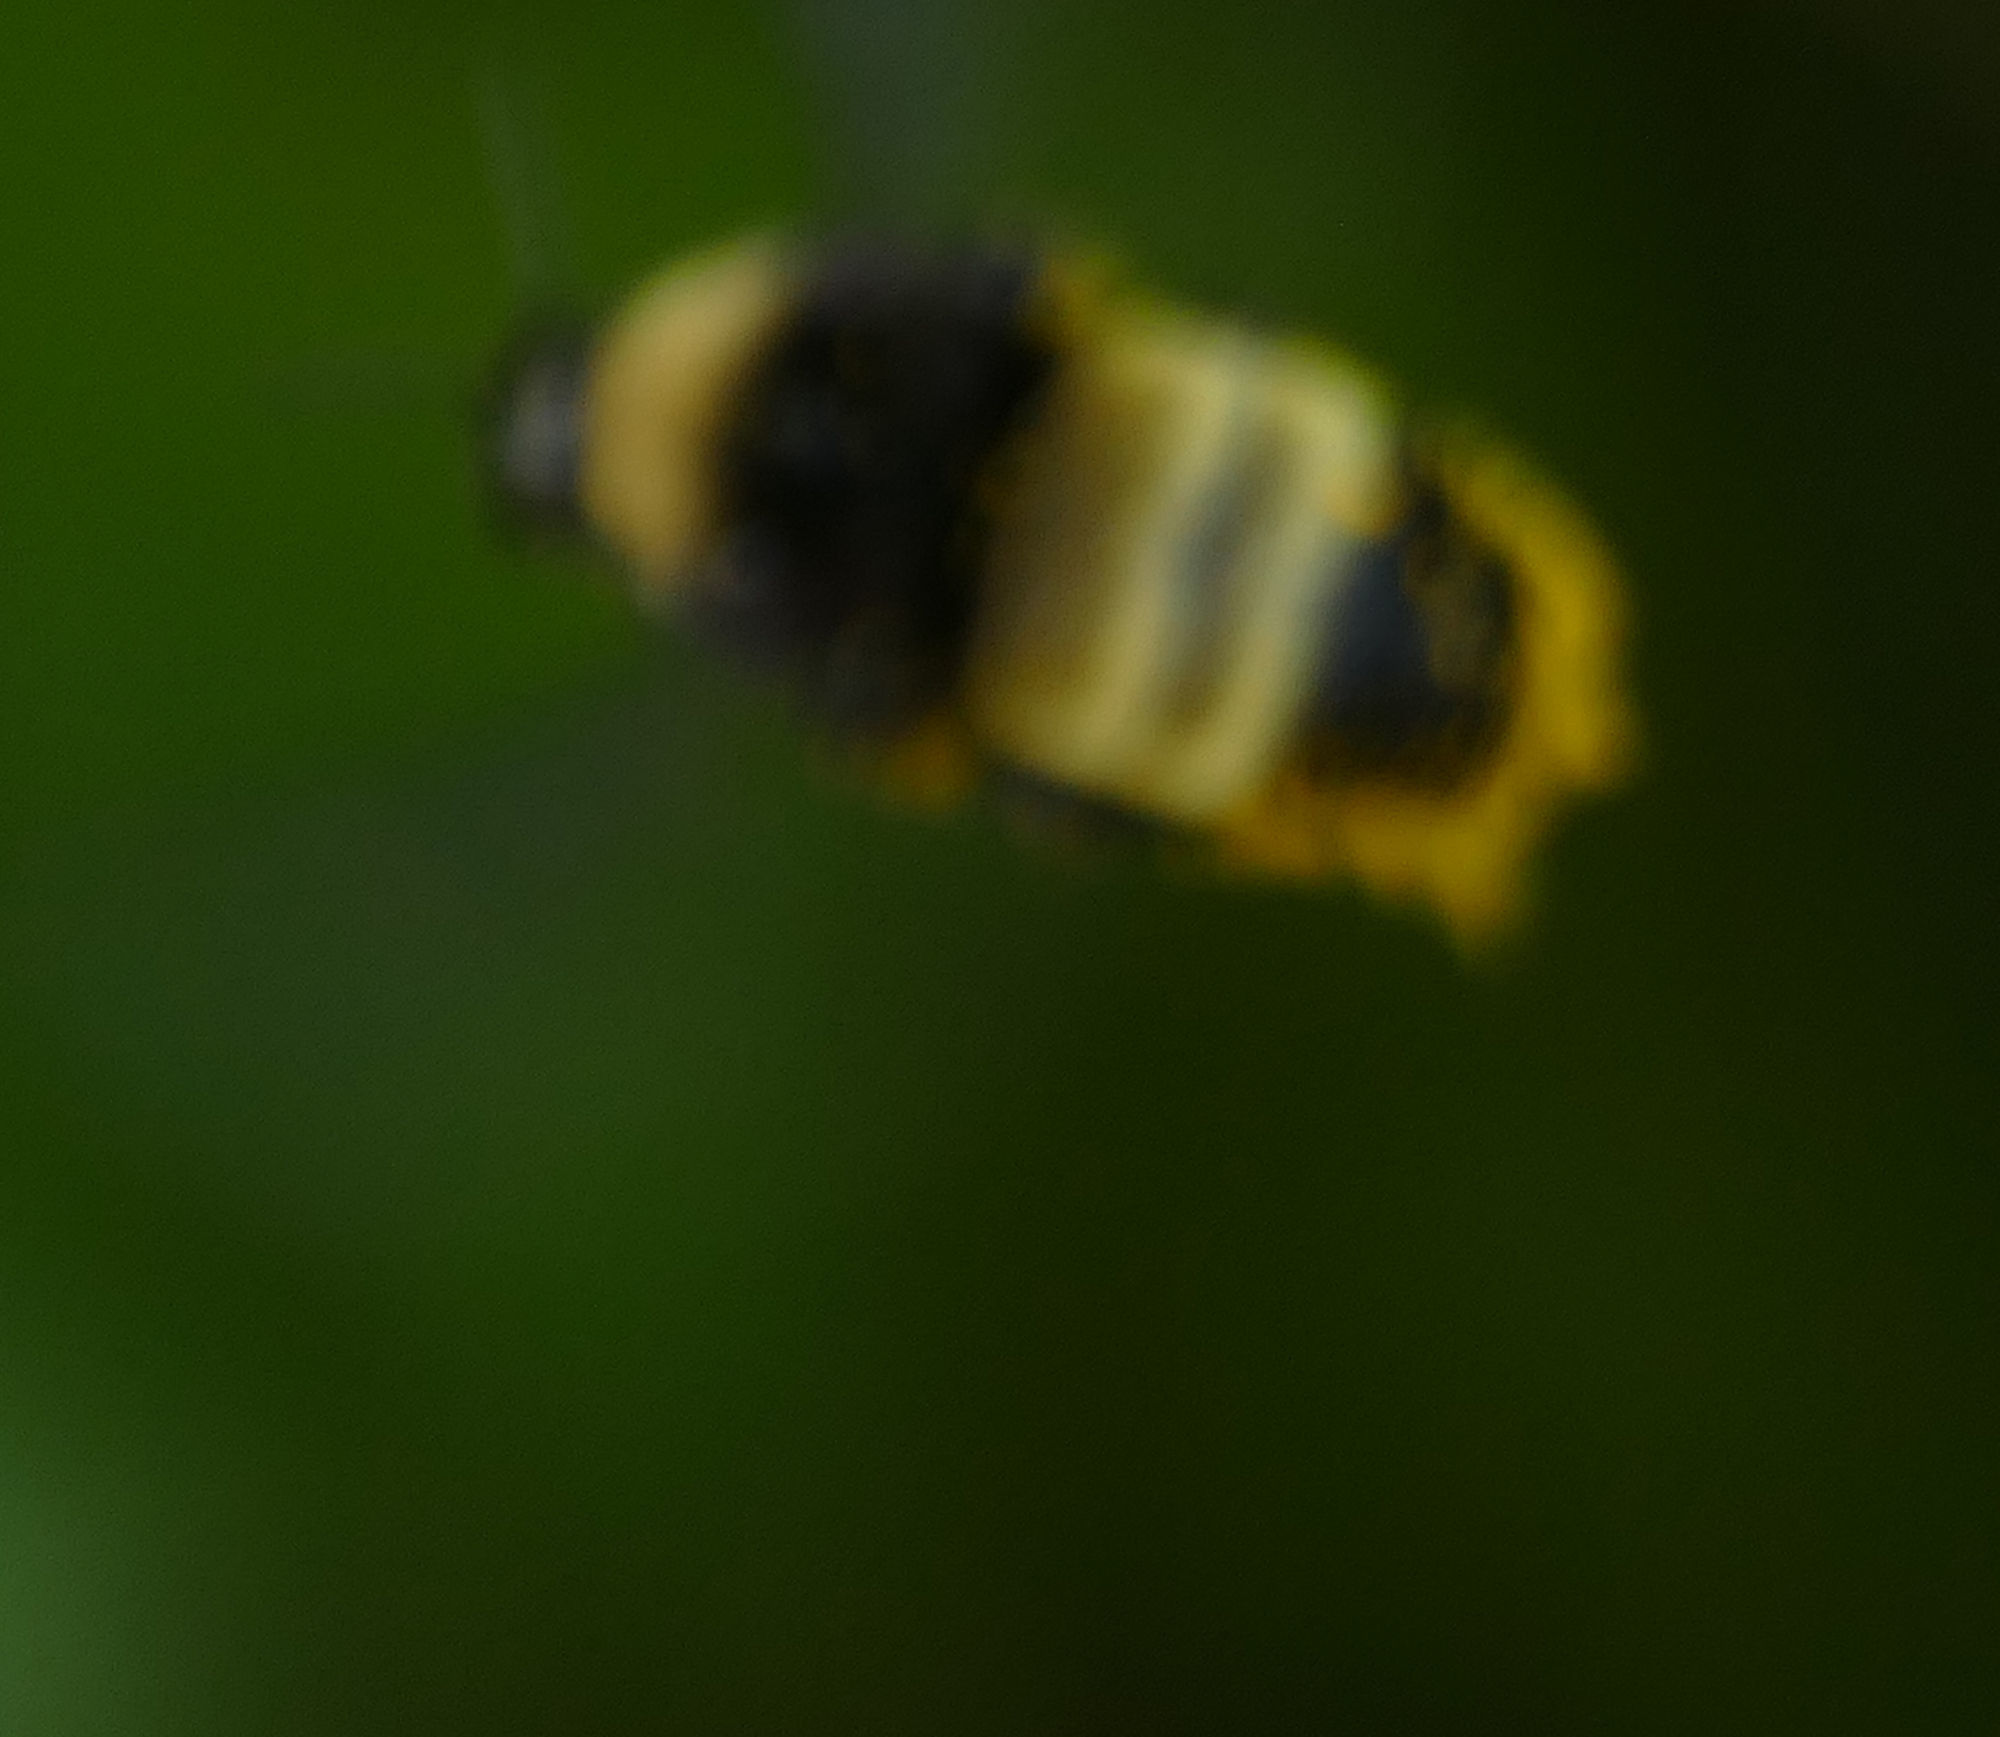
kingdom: Animalia
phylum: Arthropoda
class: Insecta
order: Hymenoptera
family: Apidae
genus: Bombus
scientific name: Bombus pensylvanicus
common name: Bumble bee
